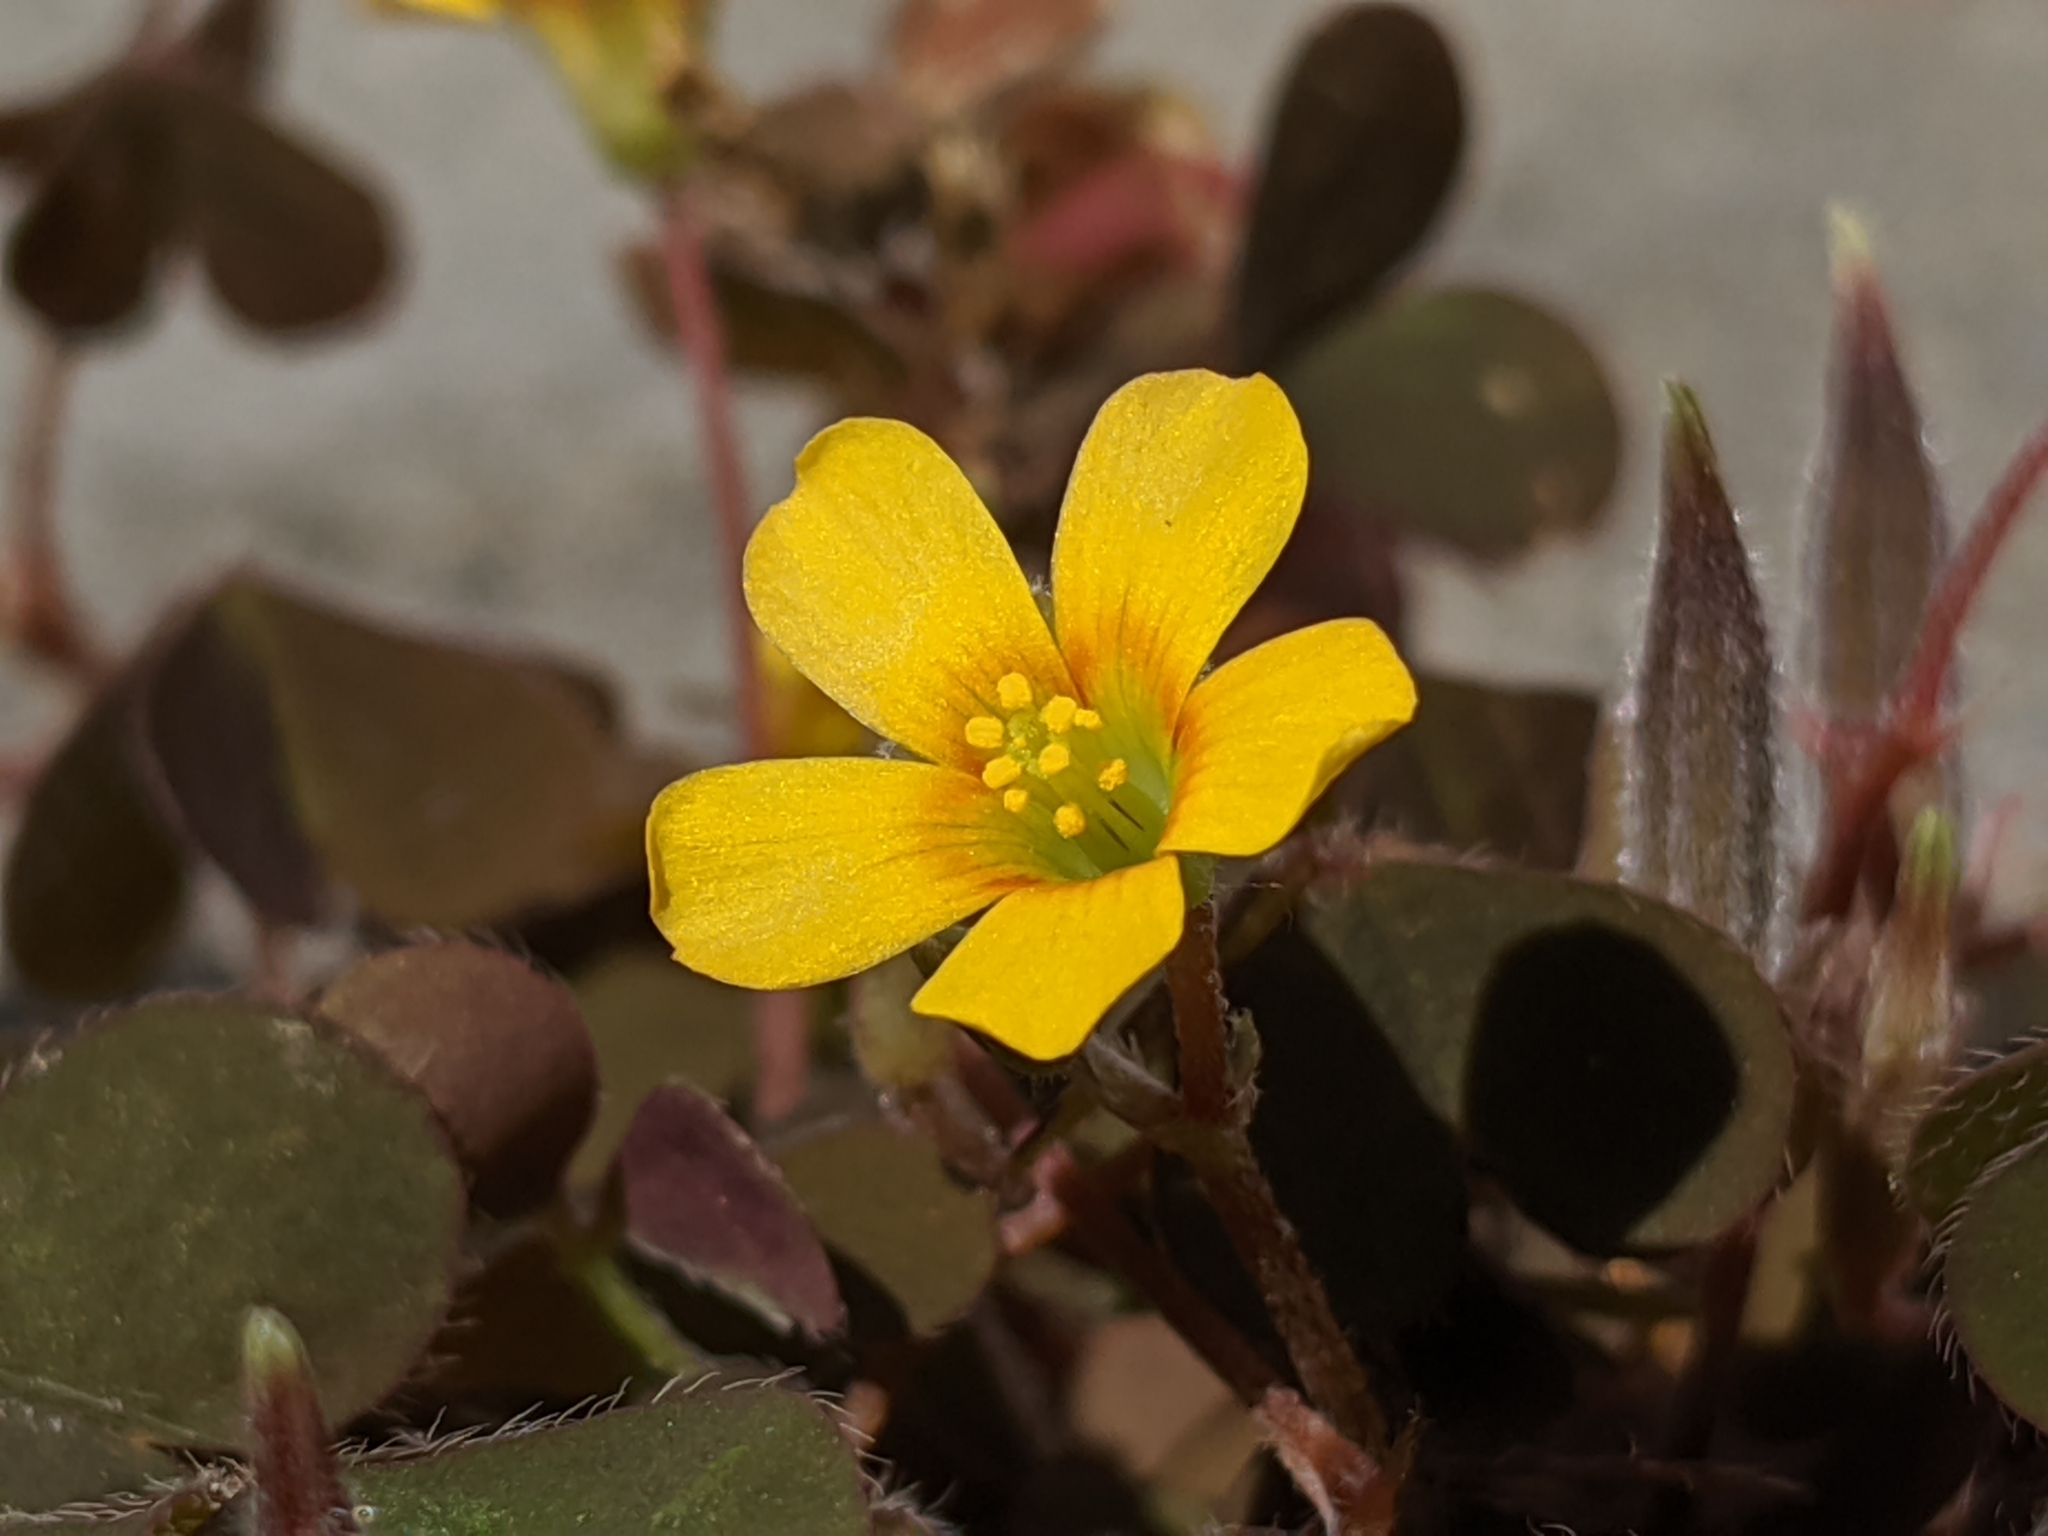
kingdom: Plantae
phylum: Tracheophyta
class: Magnoliopsida
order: Oxalidales
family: Oxalidaceae
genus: Oxalis
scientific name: Oxalis corniculata
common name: Procumbent yellow-sorrel
